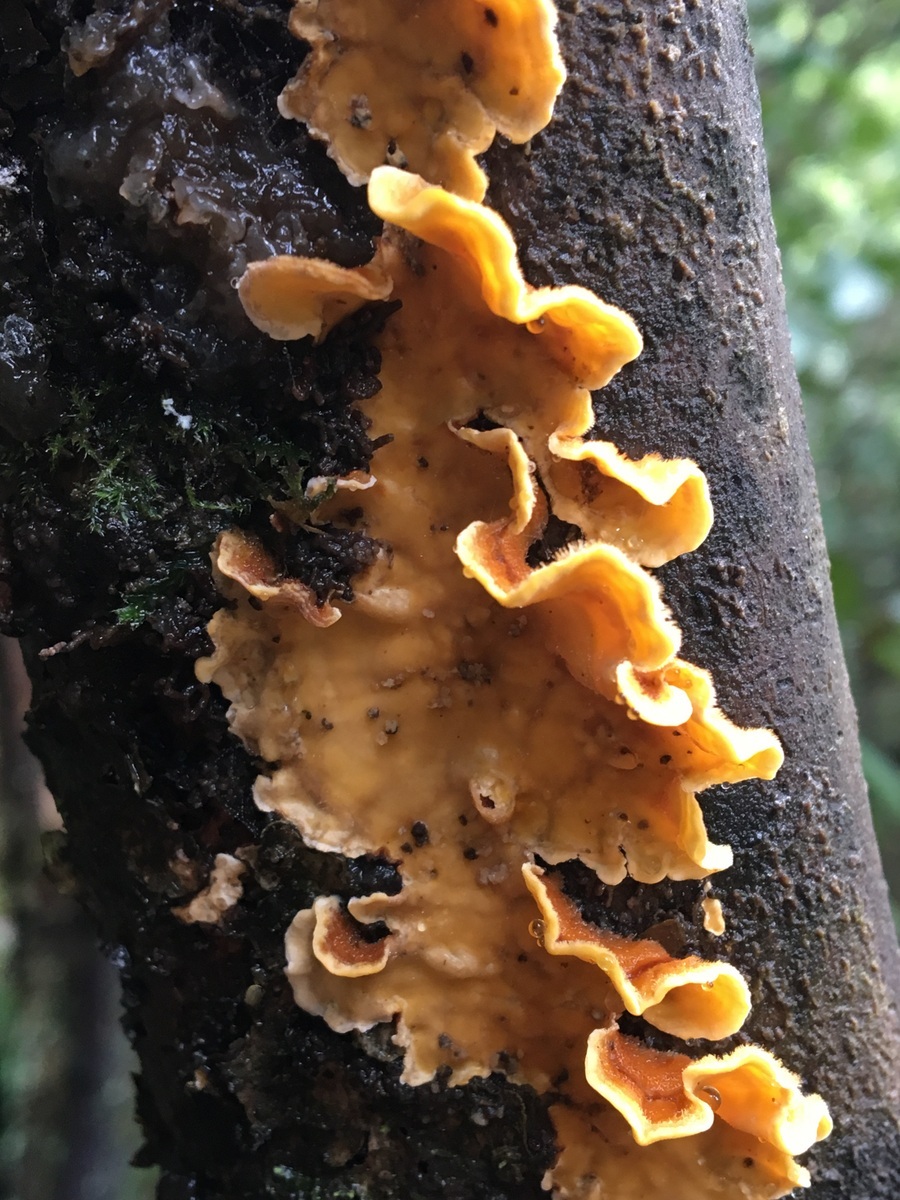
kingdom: Fungi
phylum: Basidiomycota
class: Agaricomycetes
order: Russulales
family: Stereaceae
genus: Stereum
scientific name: Stereum hirsutum
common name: Hairy curtain crust
